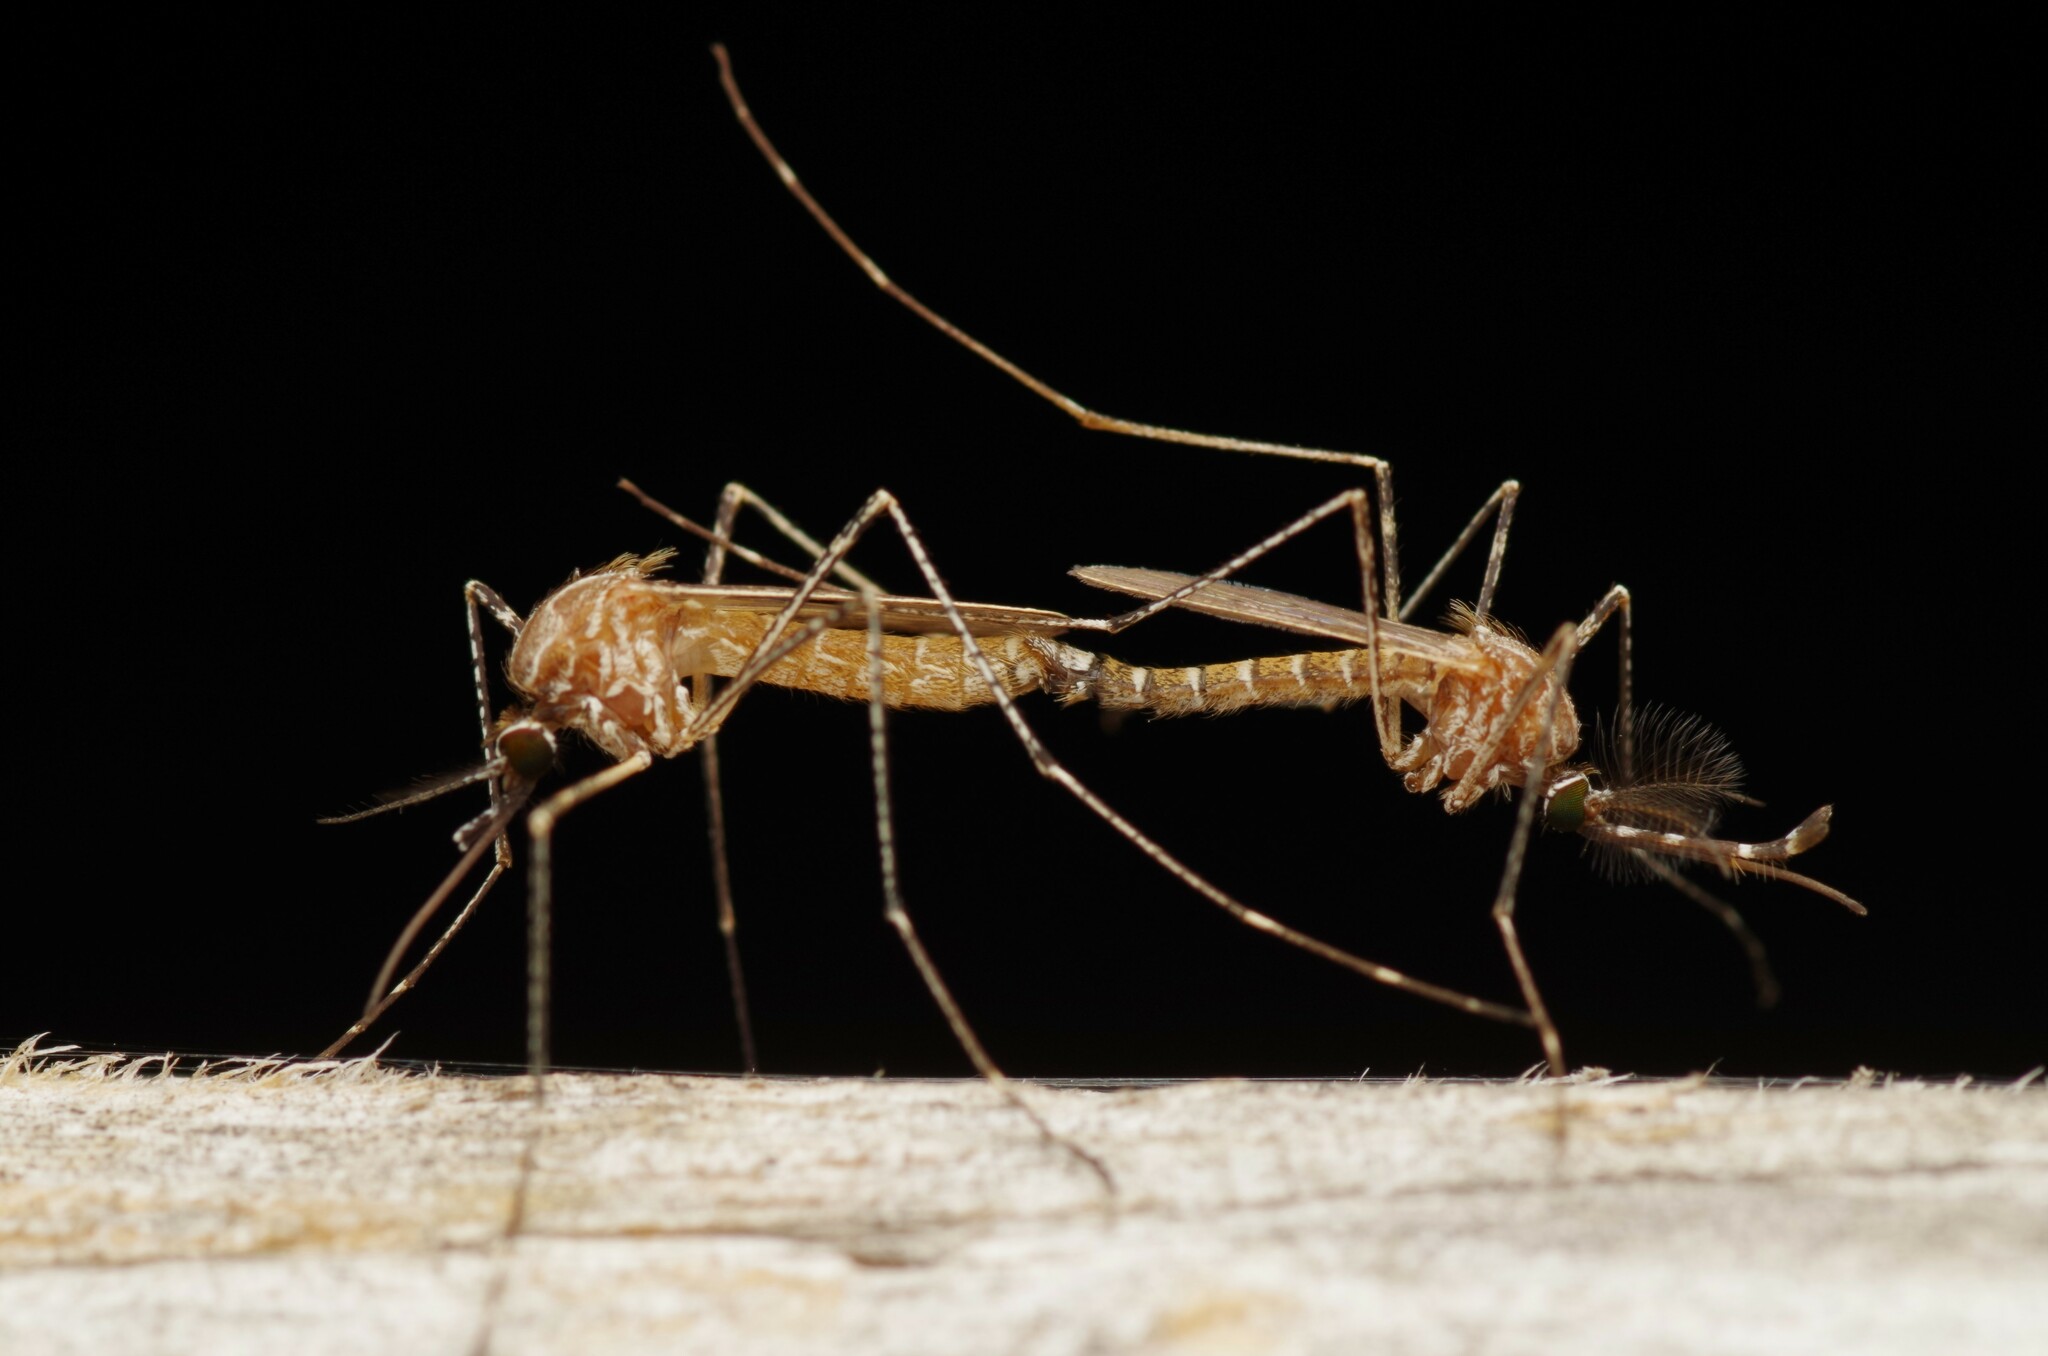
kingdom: Animalia
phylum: Arthropoda
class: Insecta
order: Diptera
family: Culicidae
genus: Culiseta
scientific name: Culiseta longiareolata
